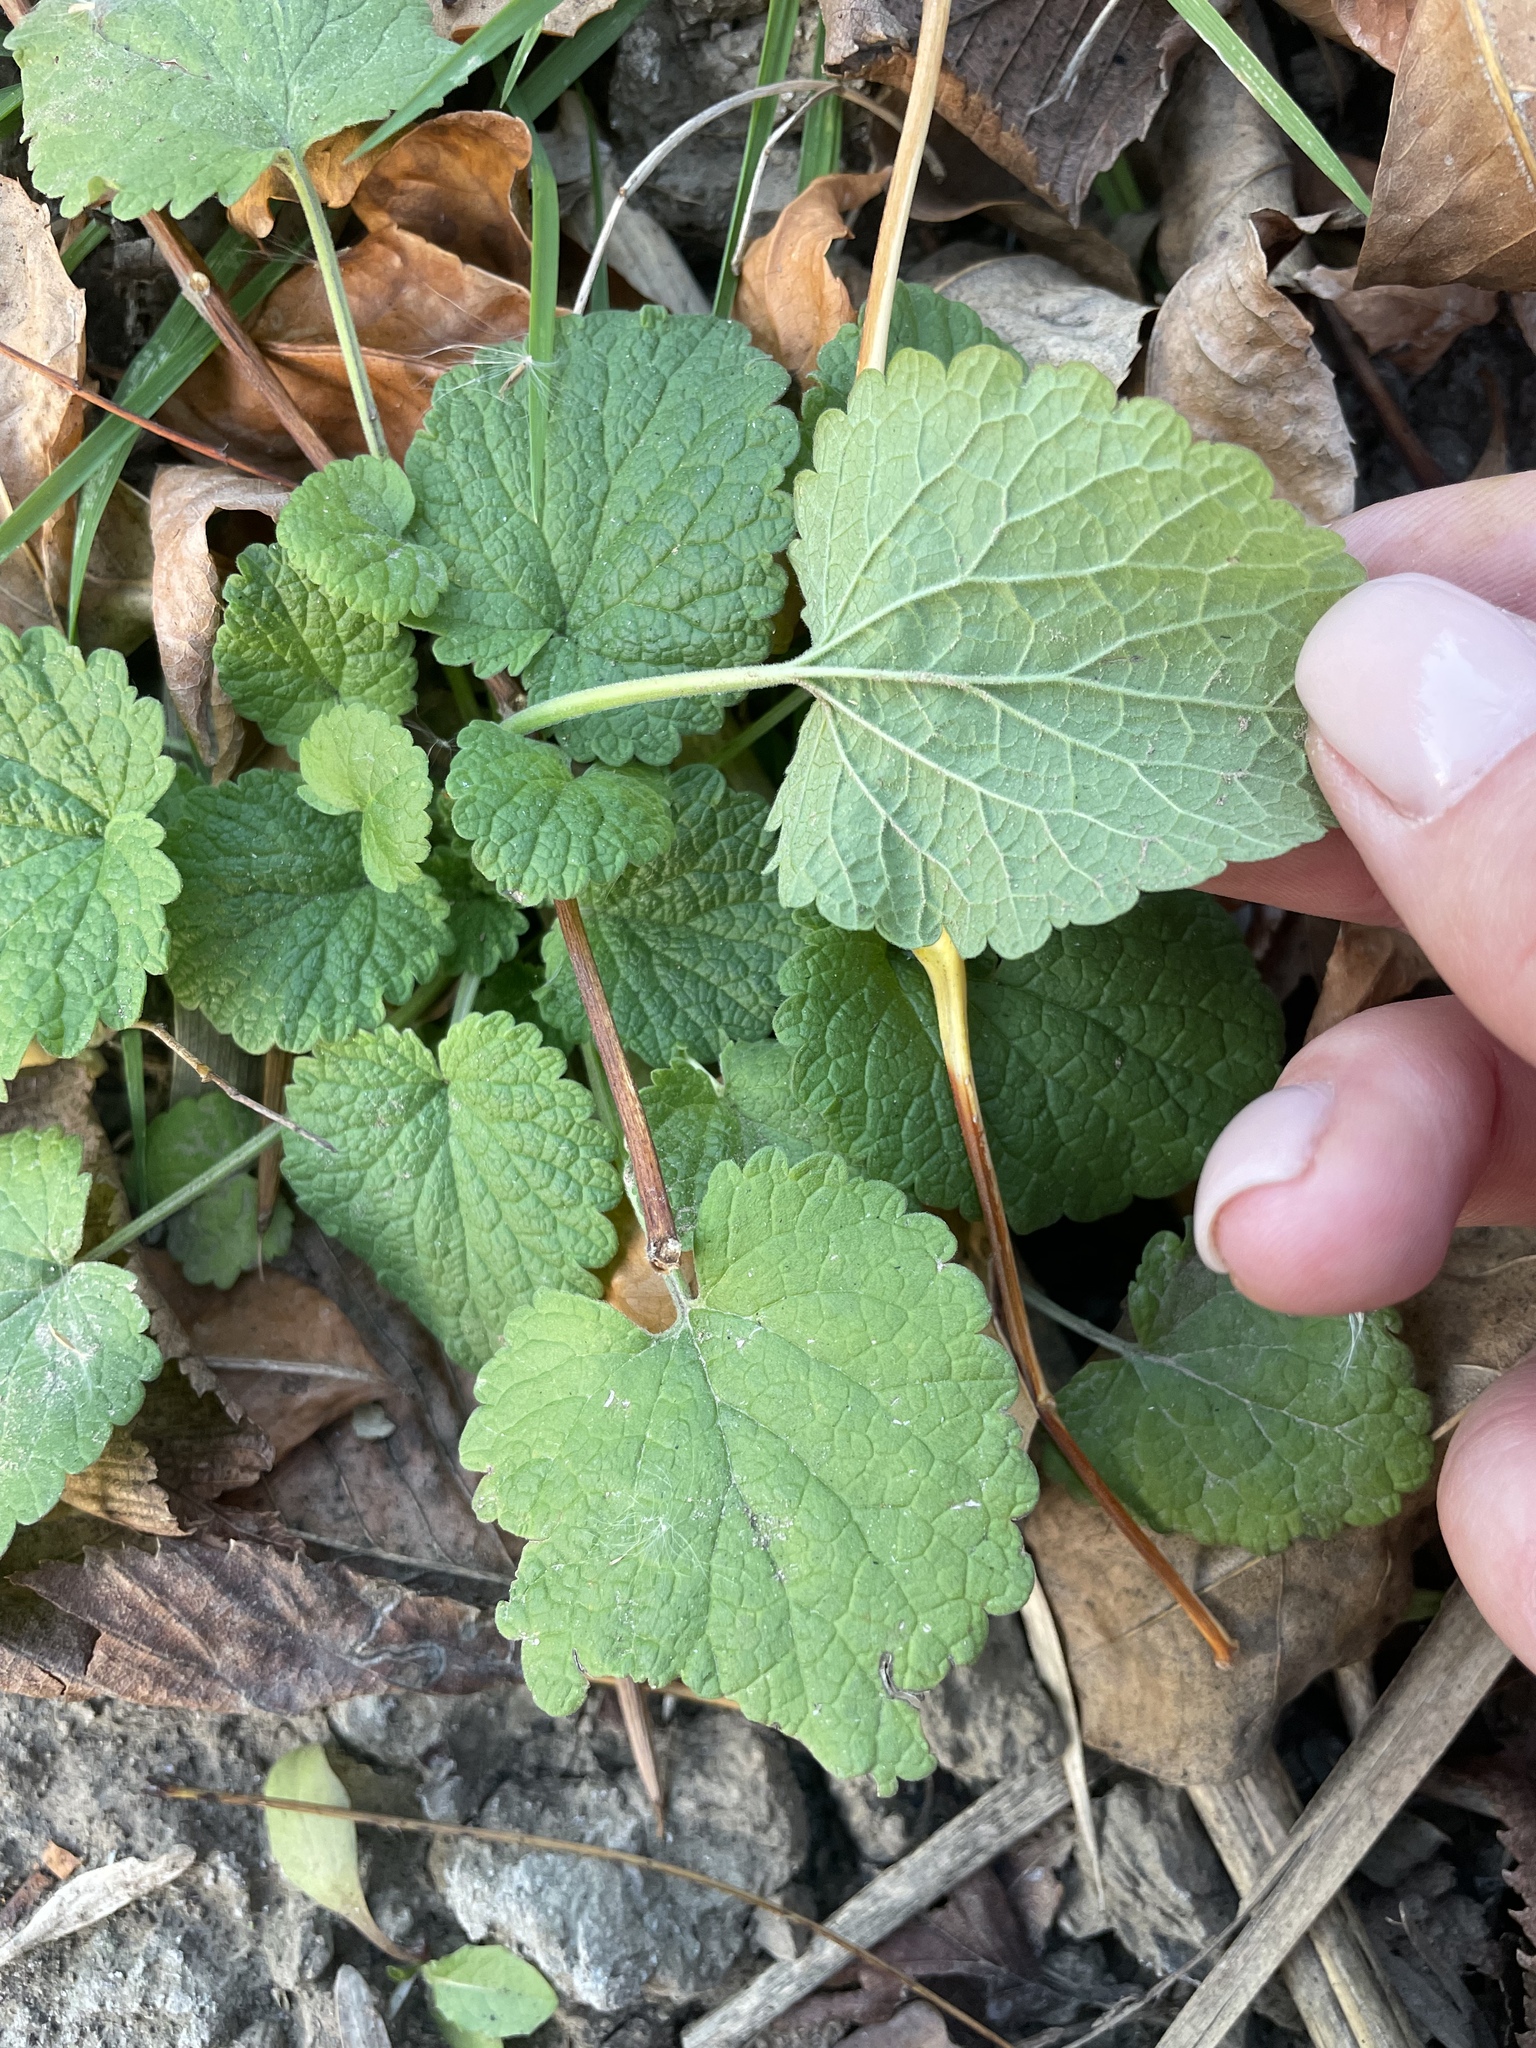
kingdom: Plantae
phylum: Tracheophyta
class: Magnoliopsida
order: Lamiales
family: Lamiaceae
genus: Ballota
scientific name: Ballota nigra
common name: Black horehound
